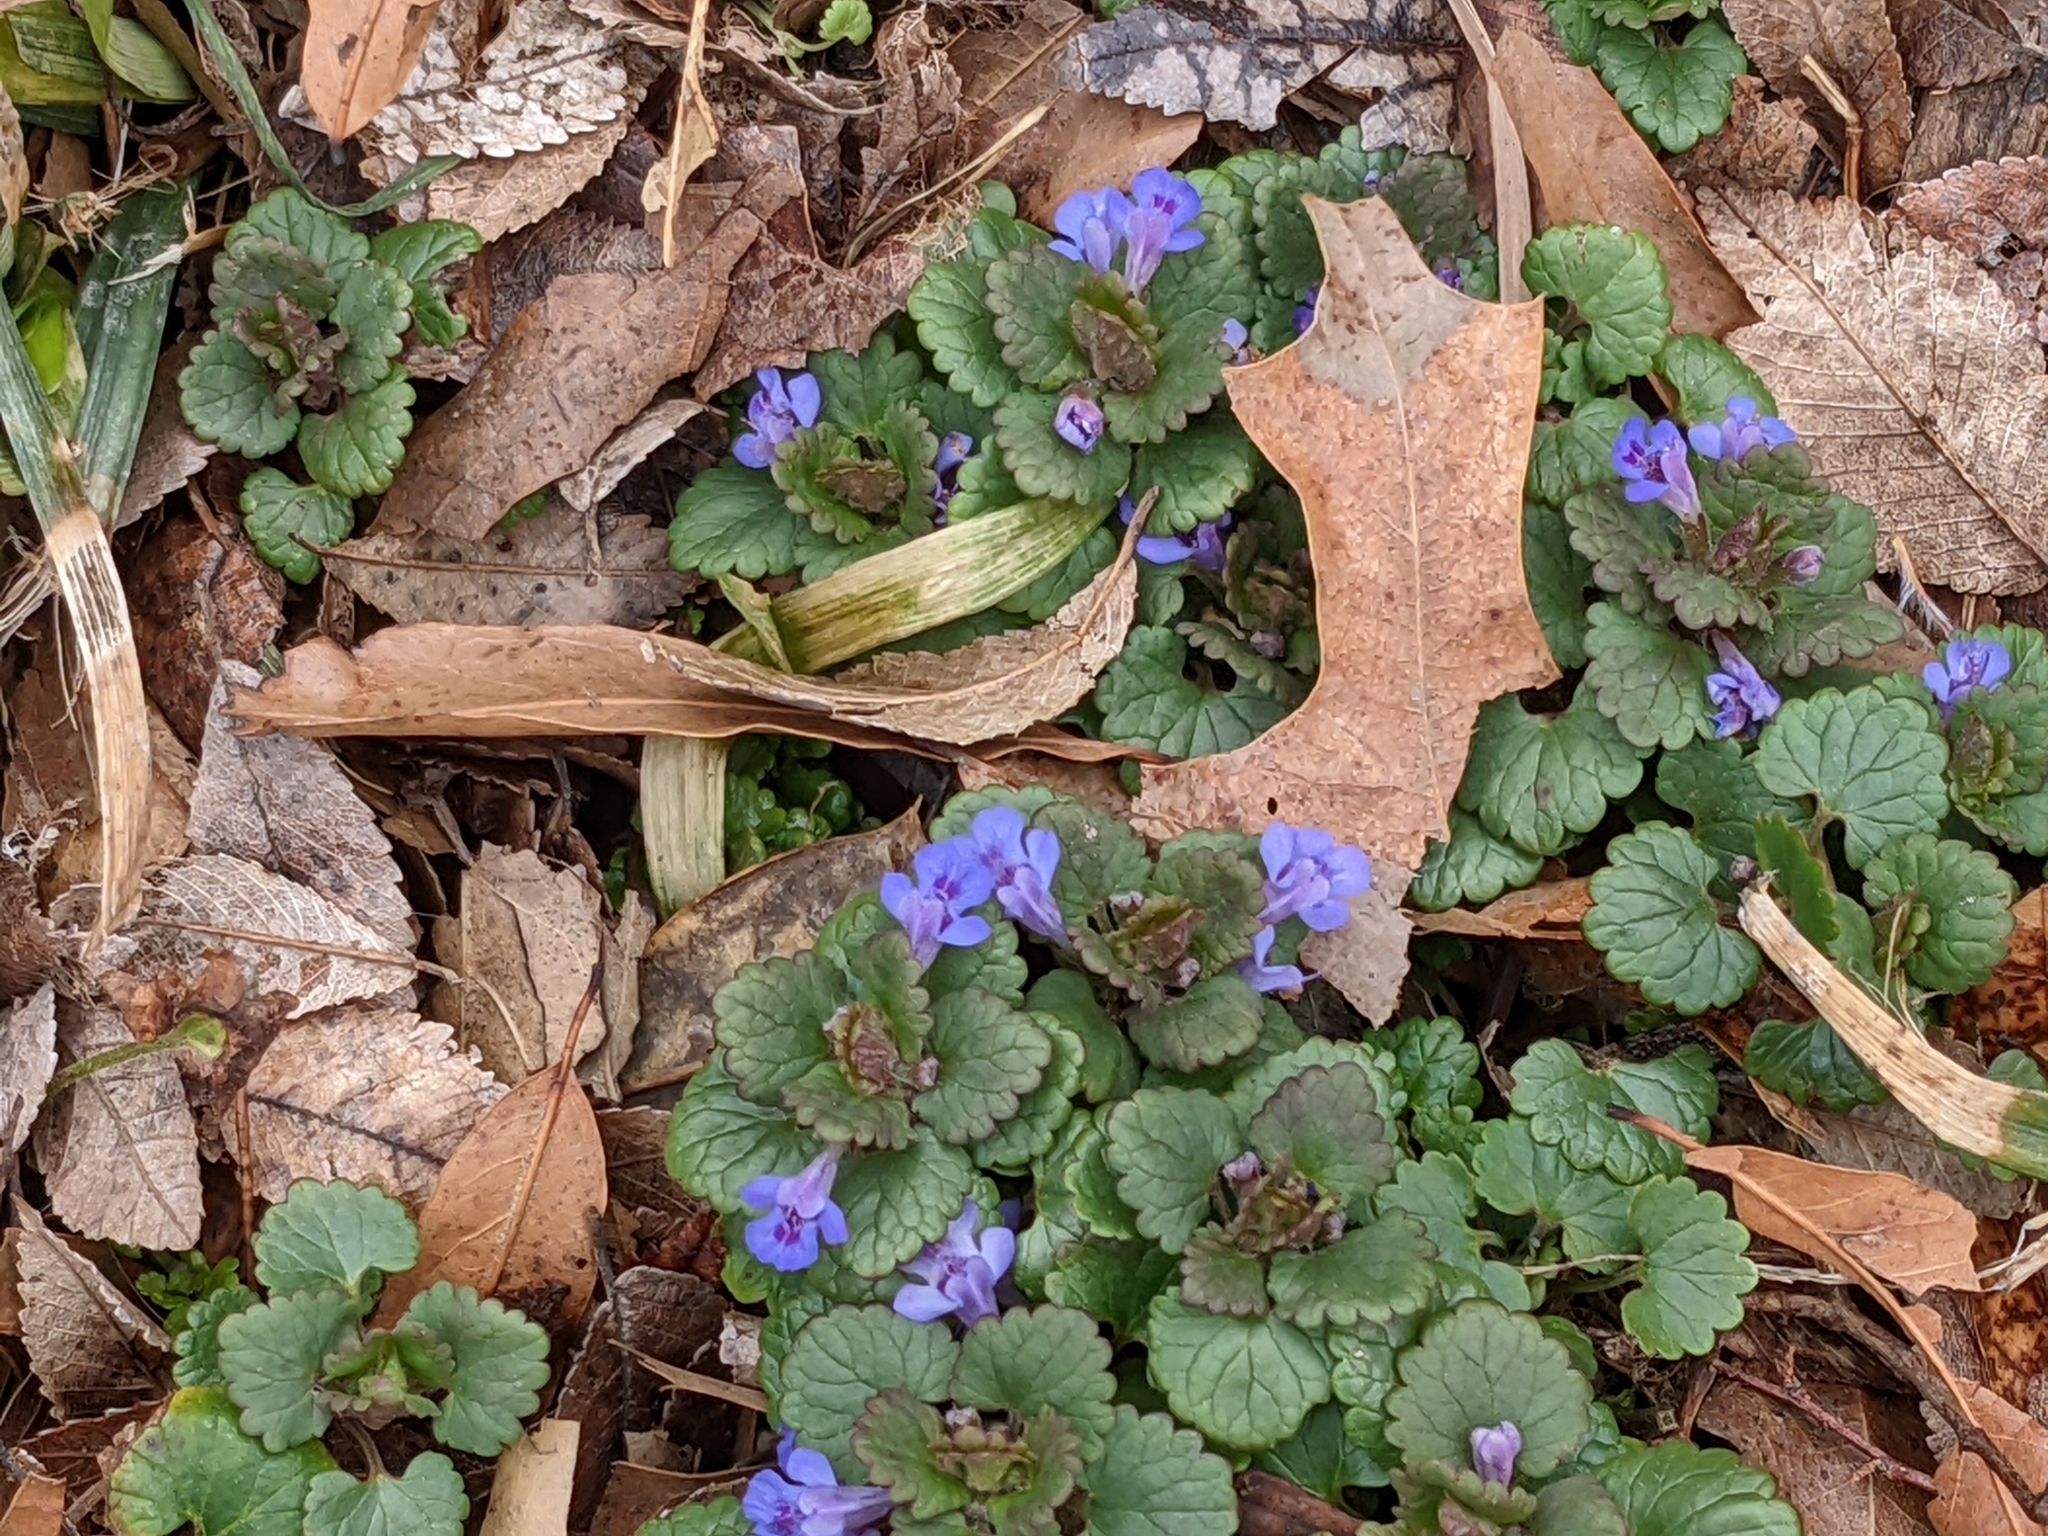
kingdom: Plantae
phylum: Tracheophyta
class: Magnoliopsida
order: Lamiales
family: Lamiaceae
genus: Glechoma
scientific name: Glechoma hederacea
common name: Ground ivy
